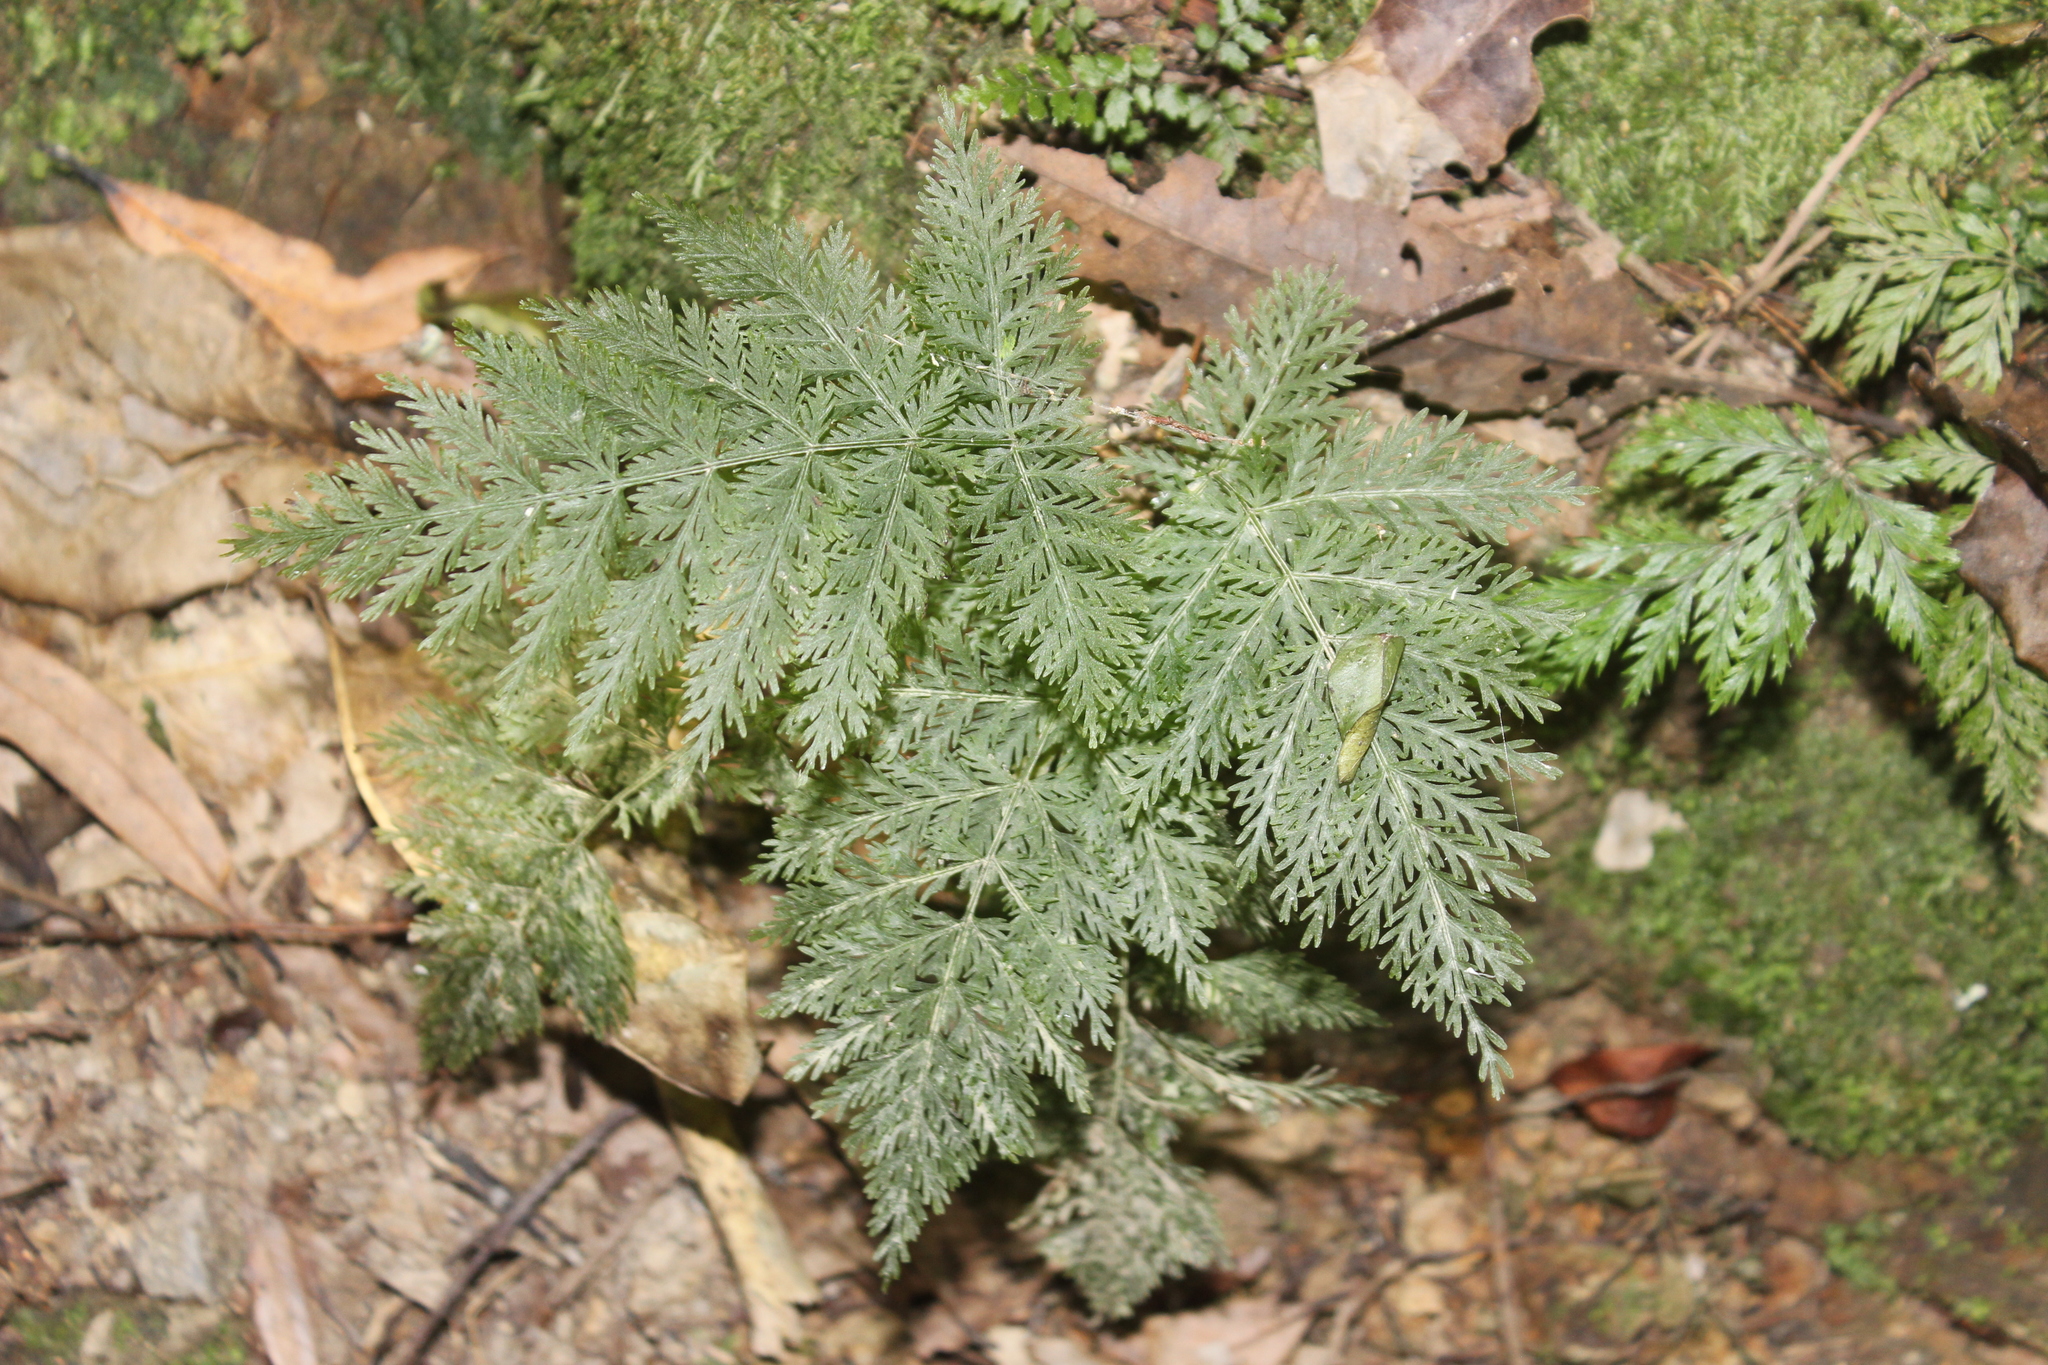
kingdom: Plantae
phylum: Tracheophyta
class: Polypodiopsida
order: Osmundales
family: Osmundaceae
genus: Leptopteris
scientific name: Leptopteris hymenophylloides
